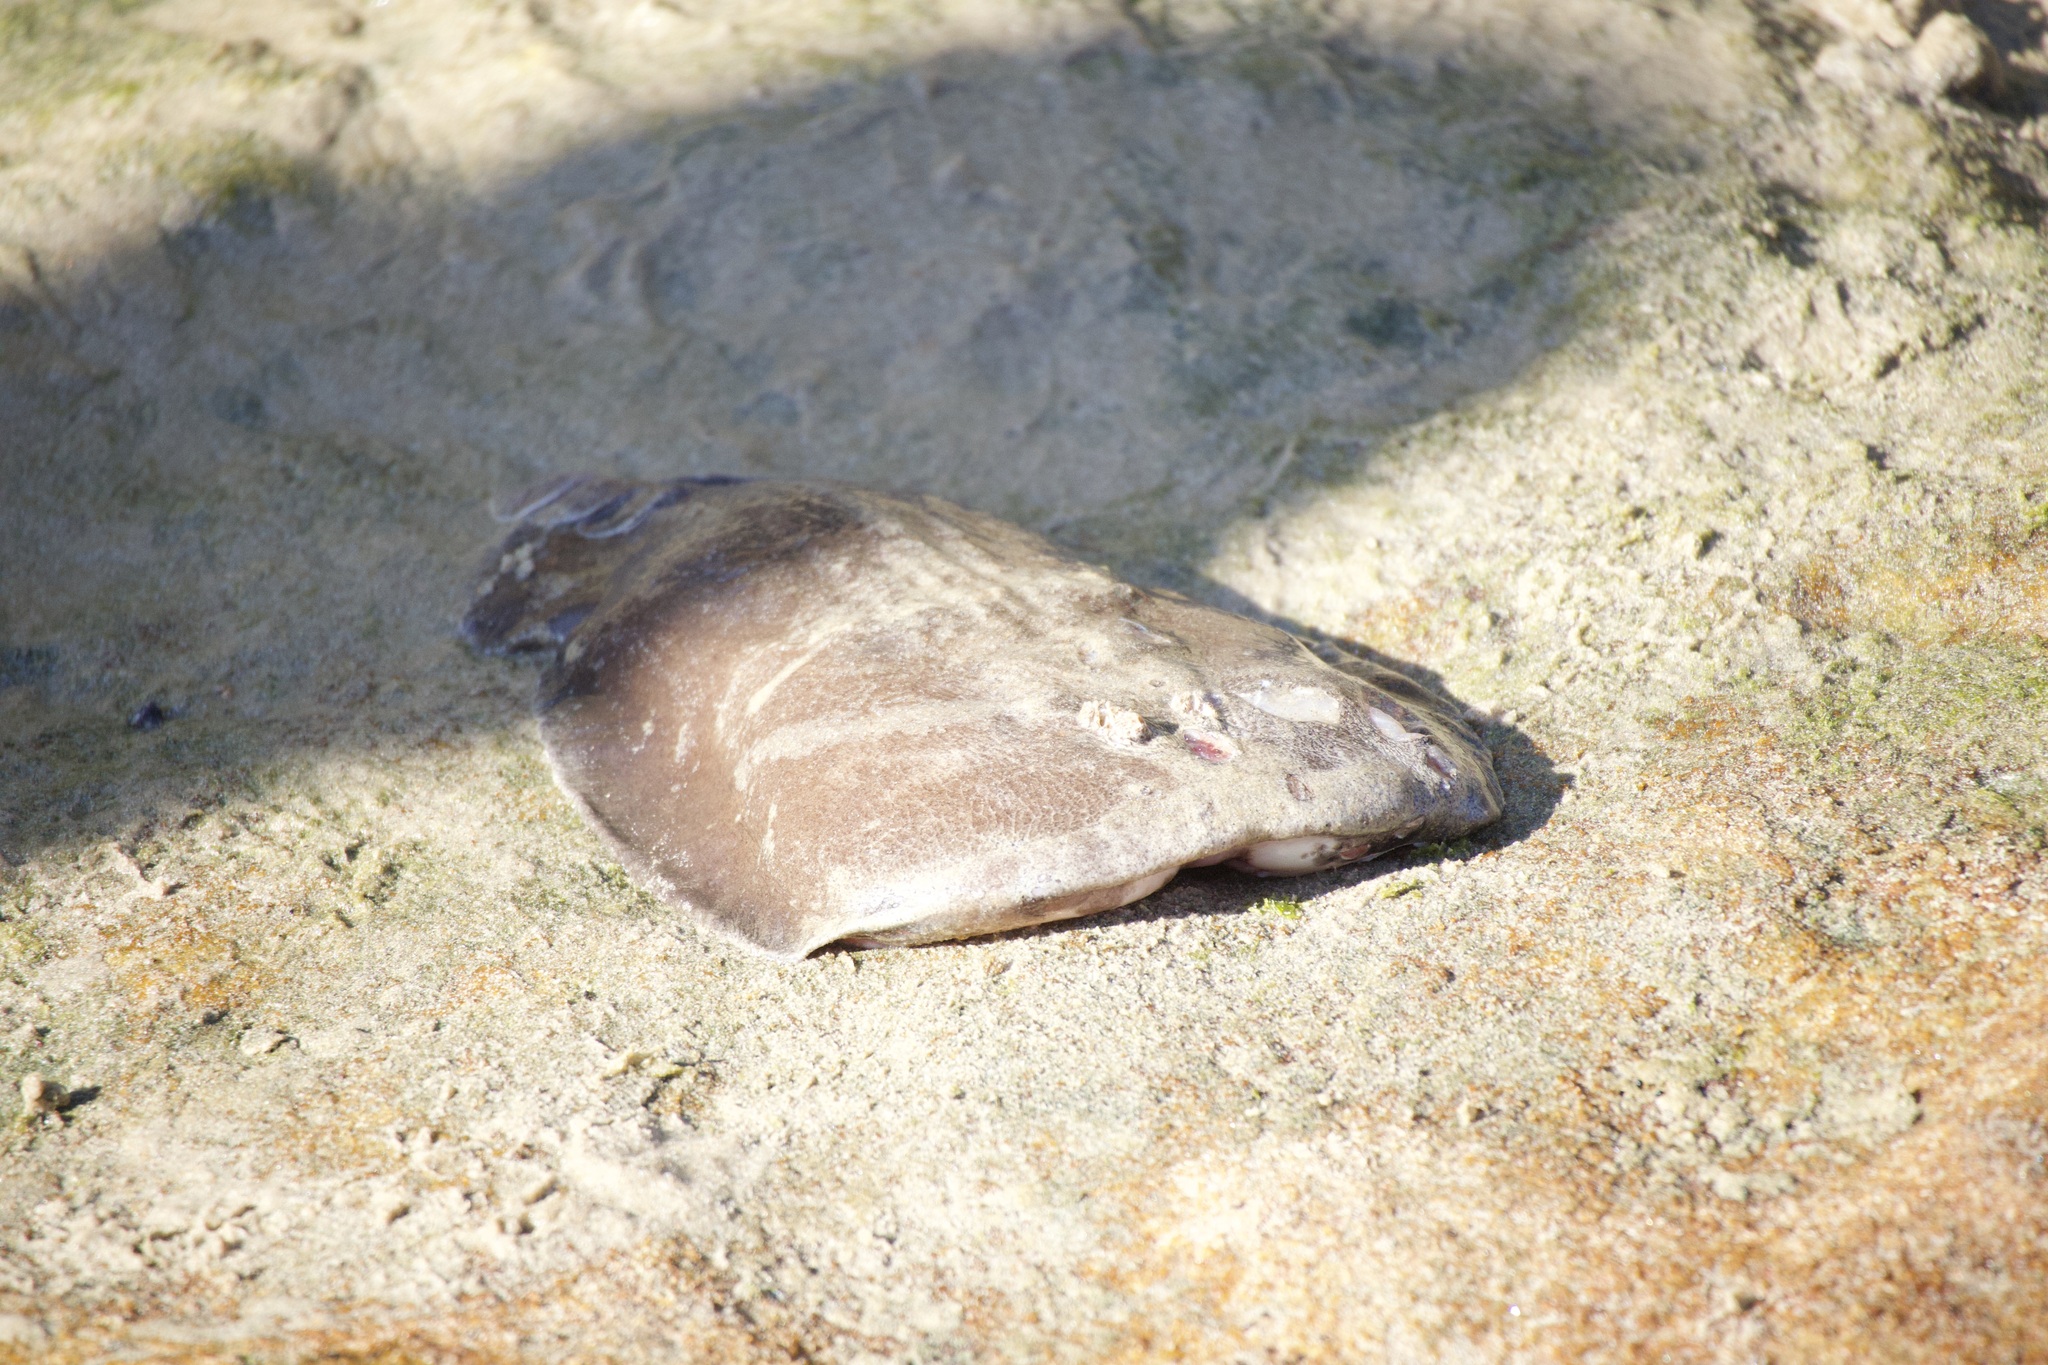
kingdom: Animalia
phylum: Chordata
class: Elasmobranchii
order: Torpediniformes
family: Hypnidae
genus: Hypnos
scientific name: Hypnos monopterygius
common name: Australian numbfish
